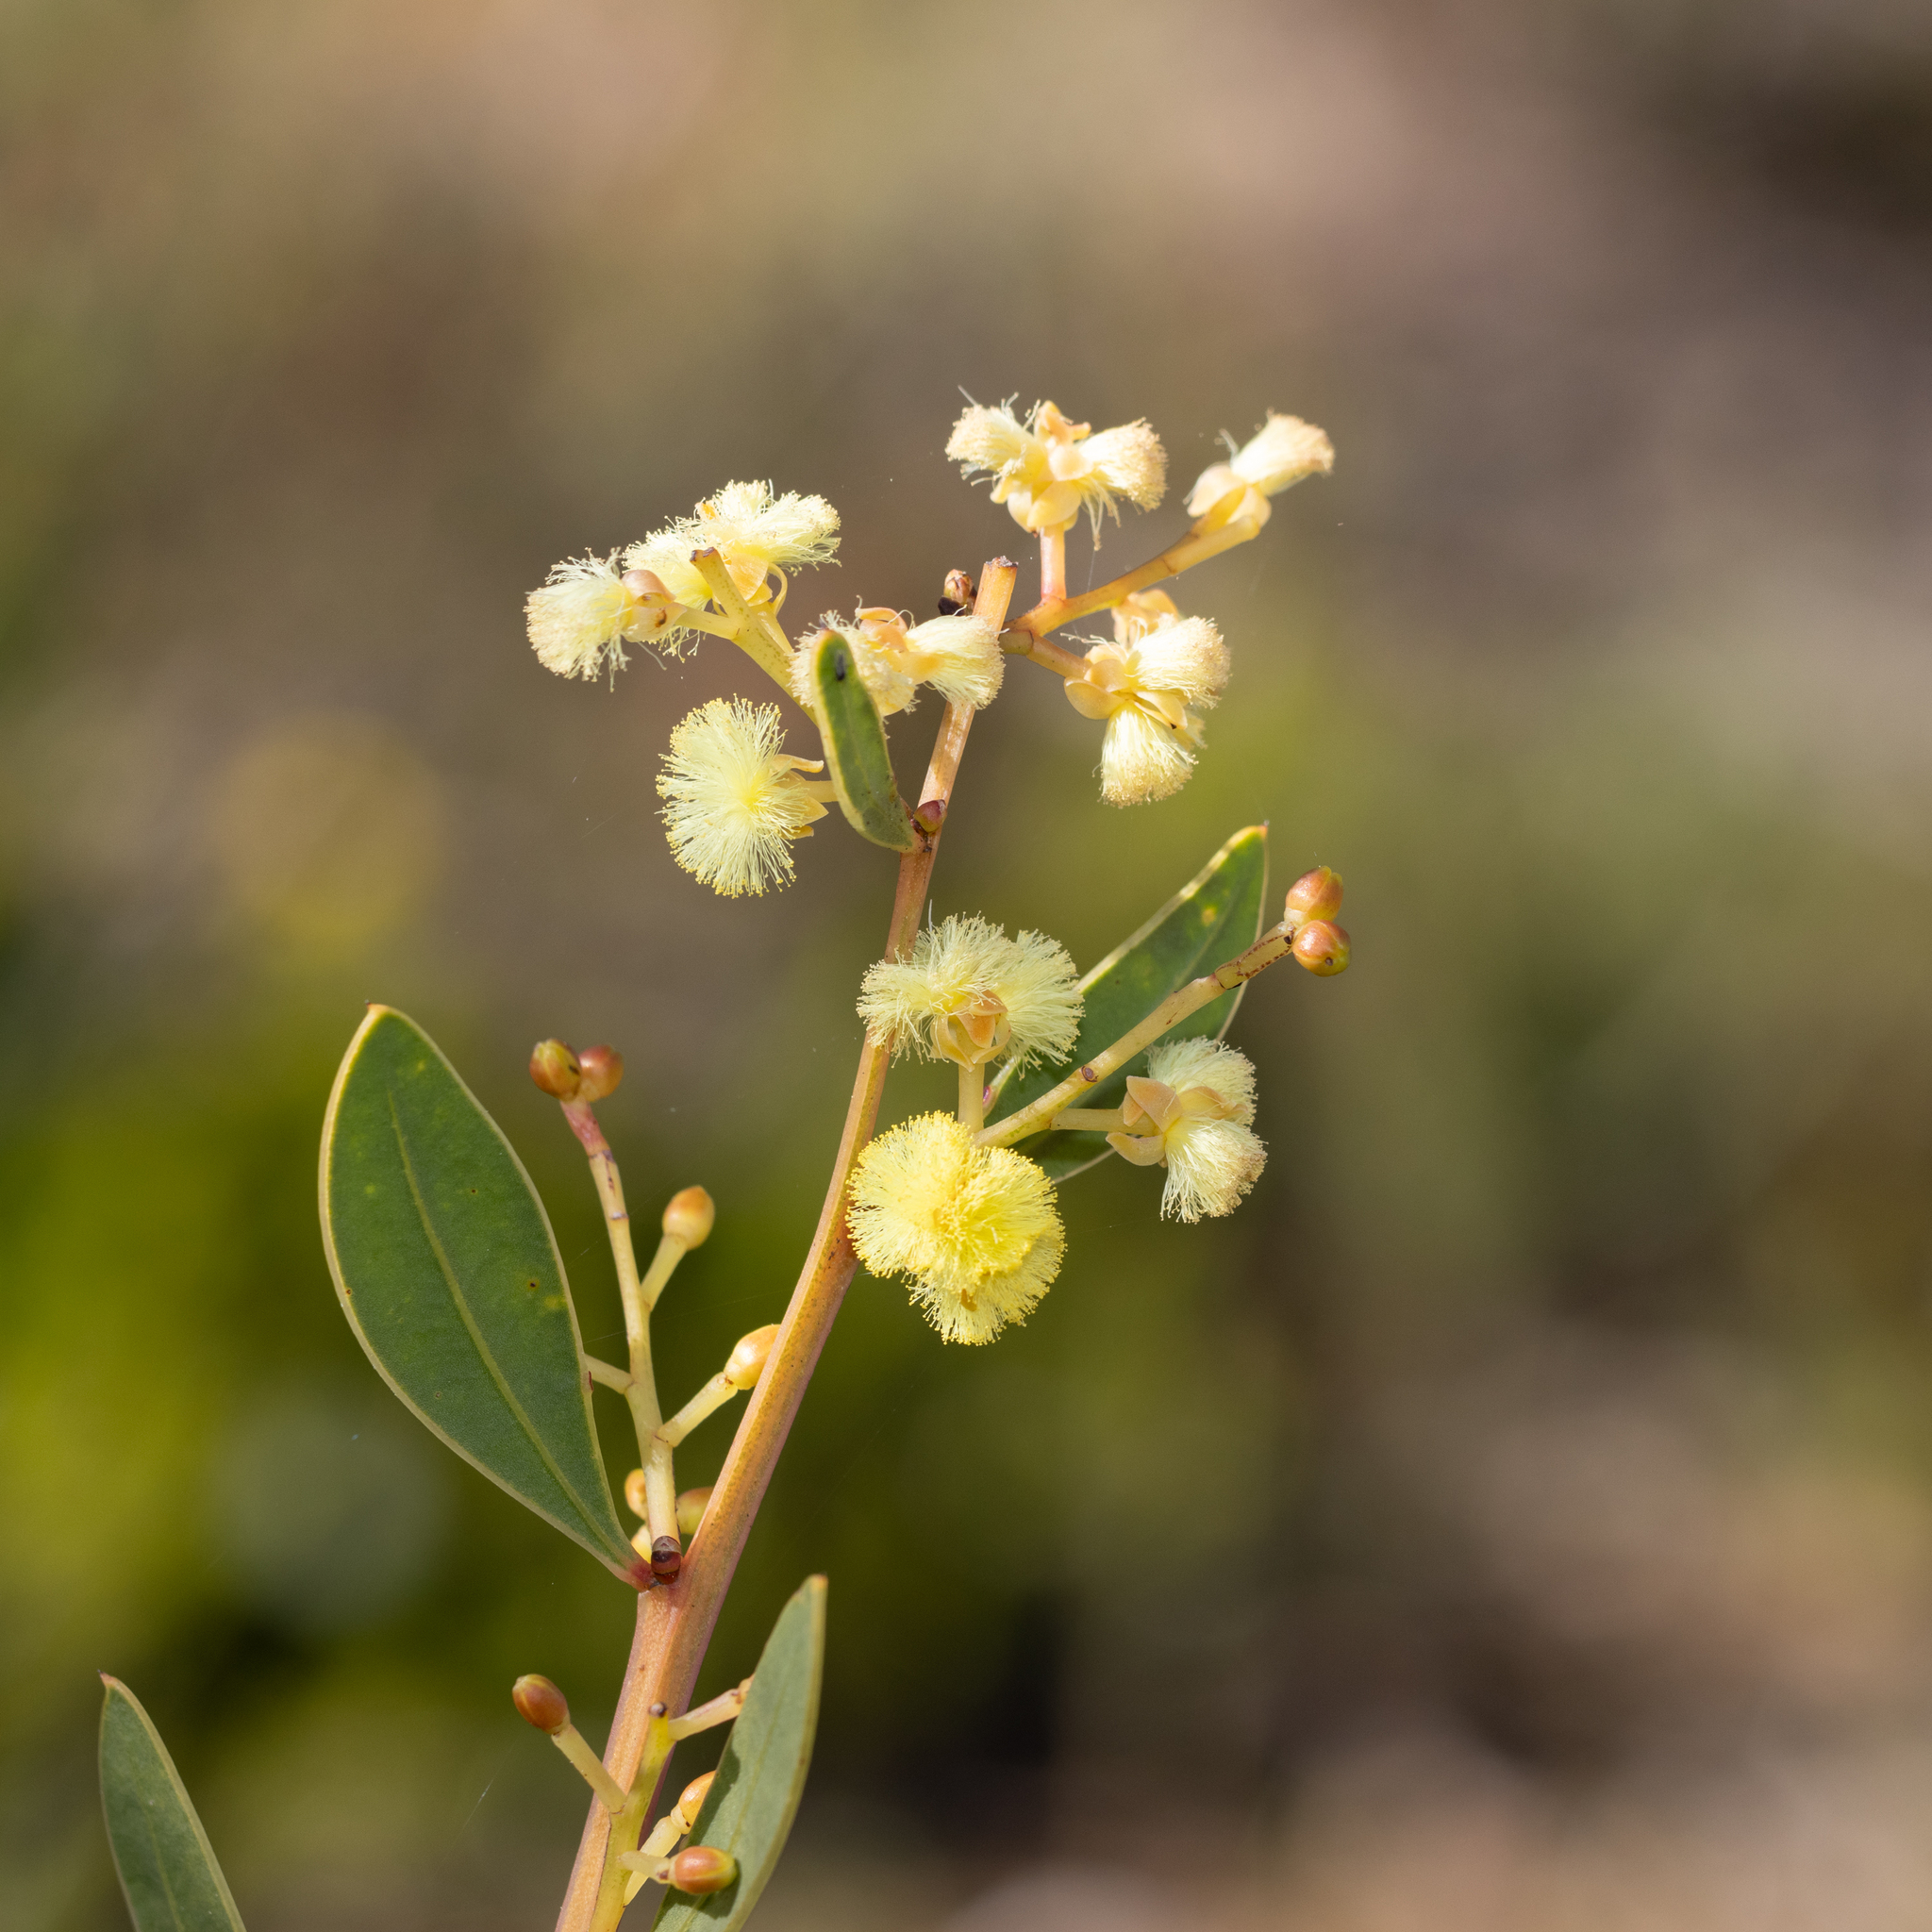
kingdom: Plantae
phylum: Tracheophyta
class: Magnoliopsida
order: Fabales
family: Fabaceae
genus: Acacia
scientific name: Acacia myrtifolia
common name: Myrtle wattle
